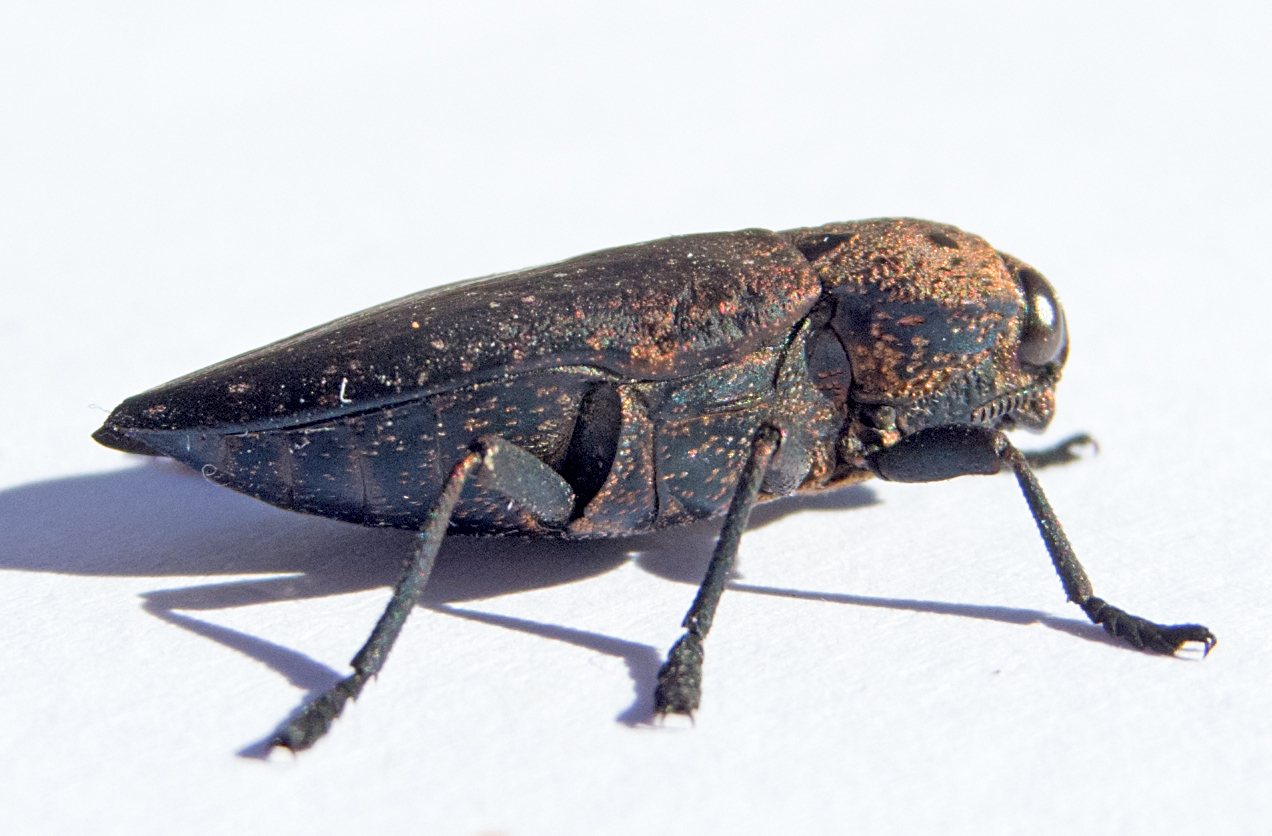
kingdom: Animalia
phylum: Arthropoda
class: Insecta
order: Coleoptera
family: Buprestidae
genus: Capnodis
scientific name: Capnodis tenebricosa
